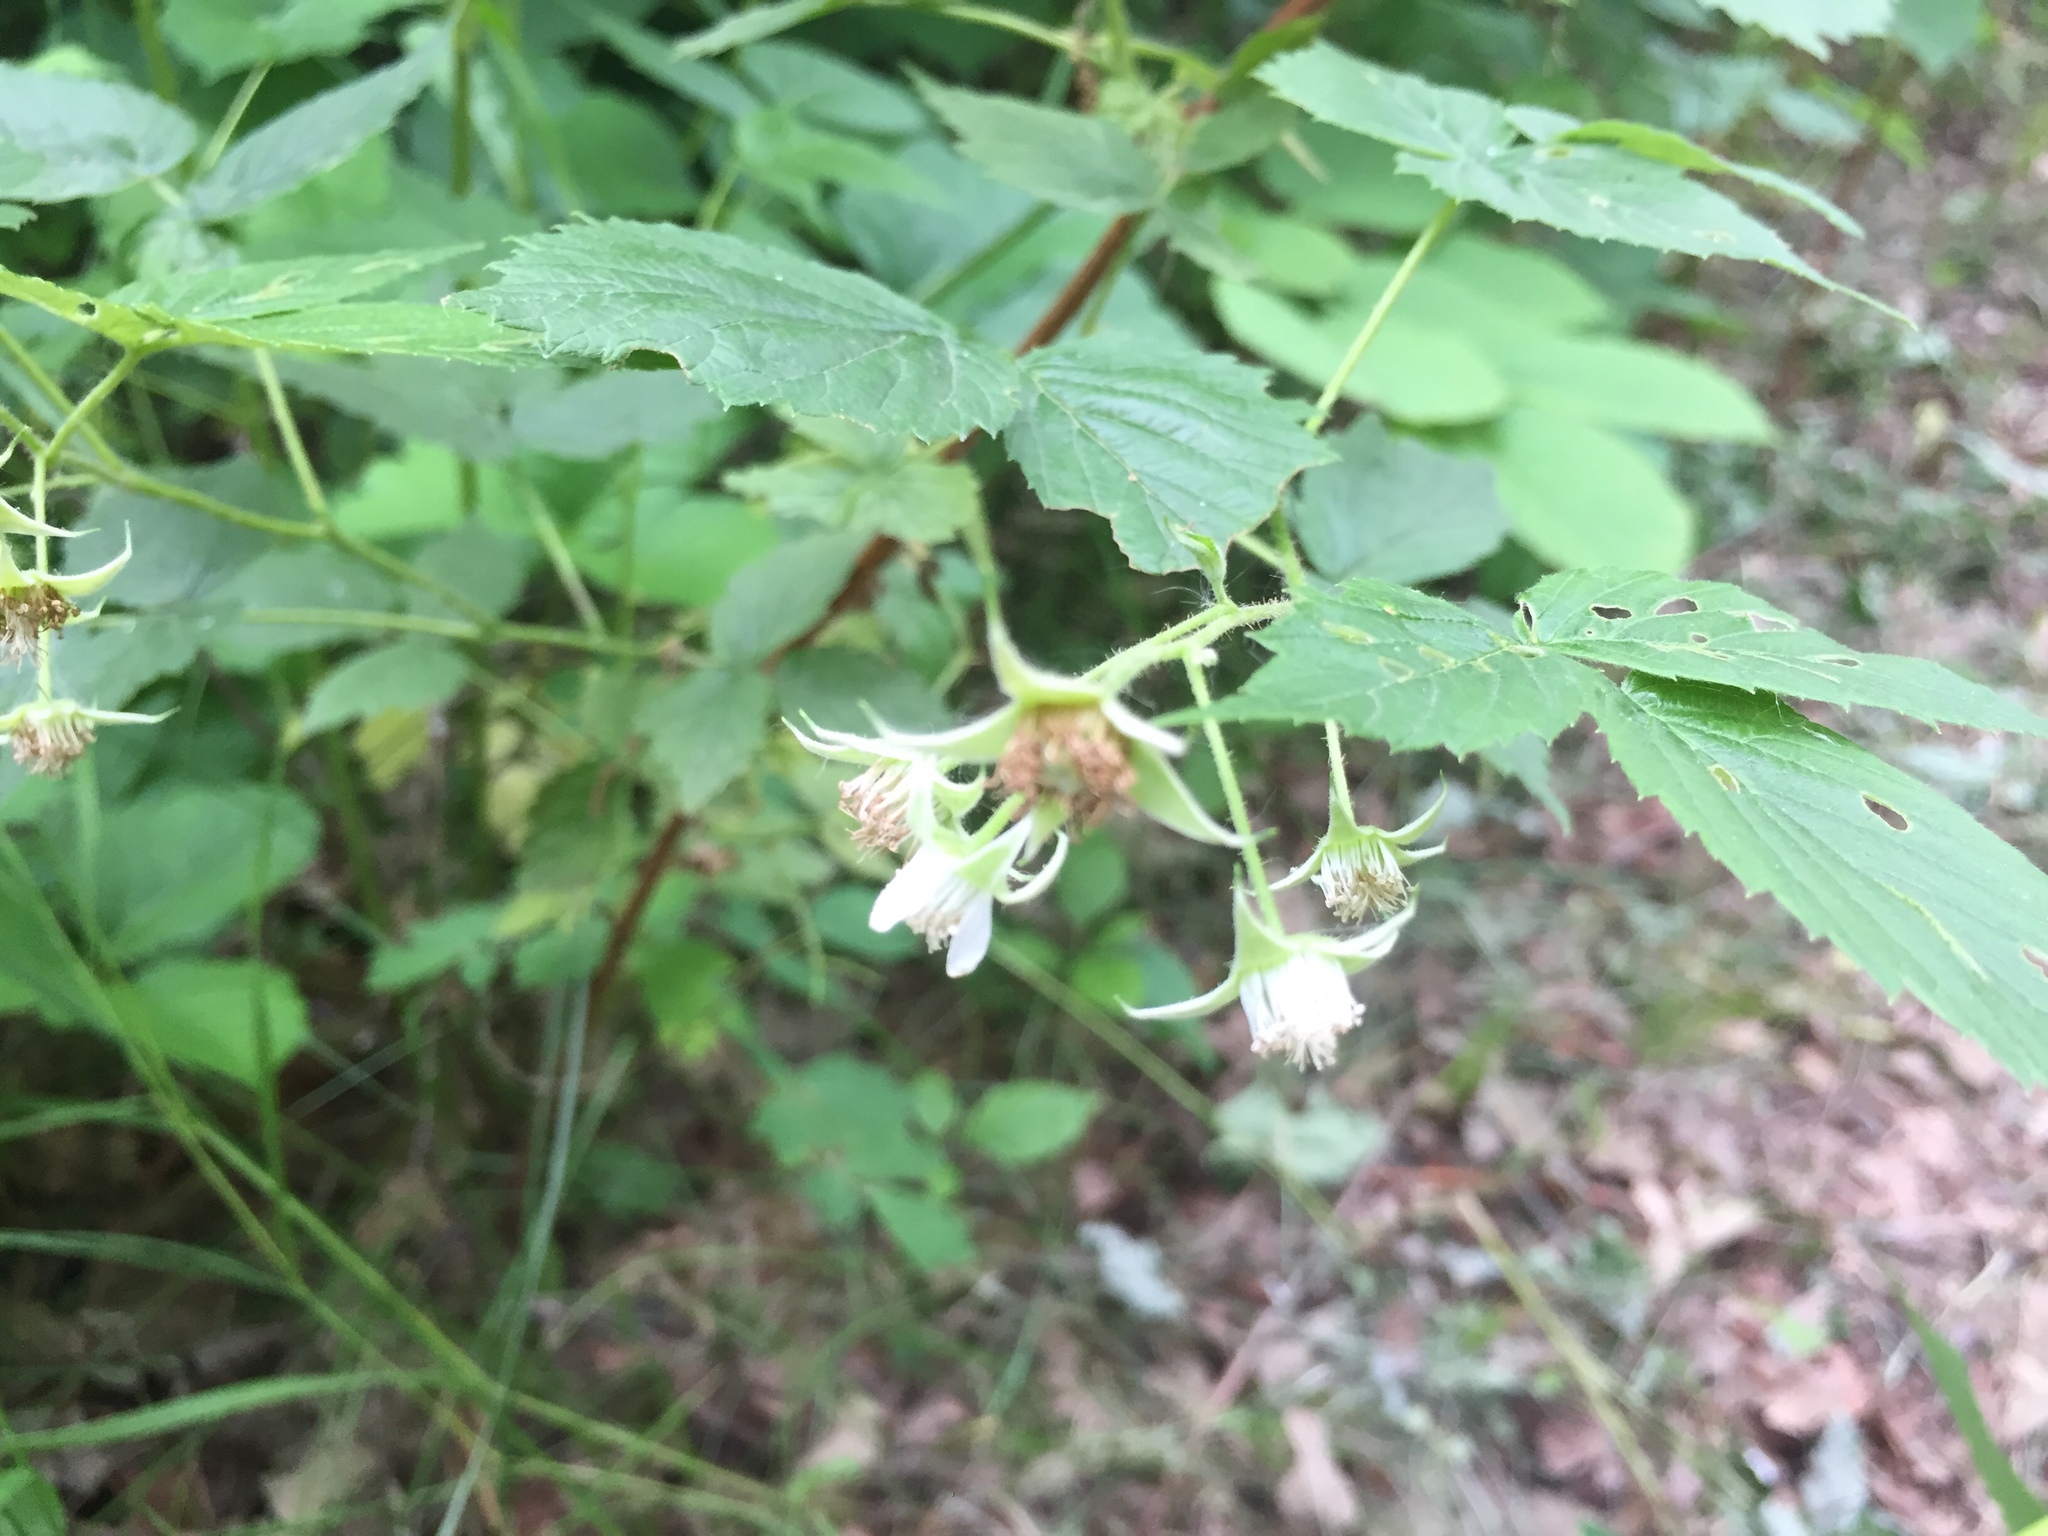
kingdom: Plantae
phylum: Tracheophyta
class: Magnoliopsida
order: Rosales
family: Rosaceae
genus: Rubus
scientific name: Rubus idaeus
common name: Raspberry
